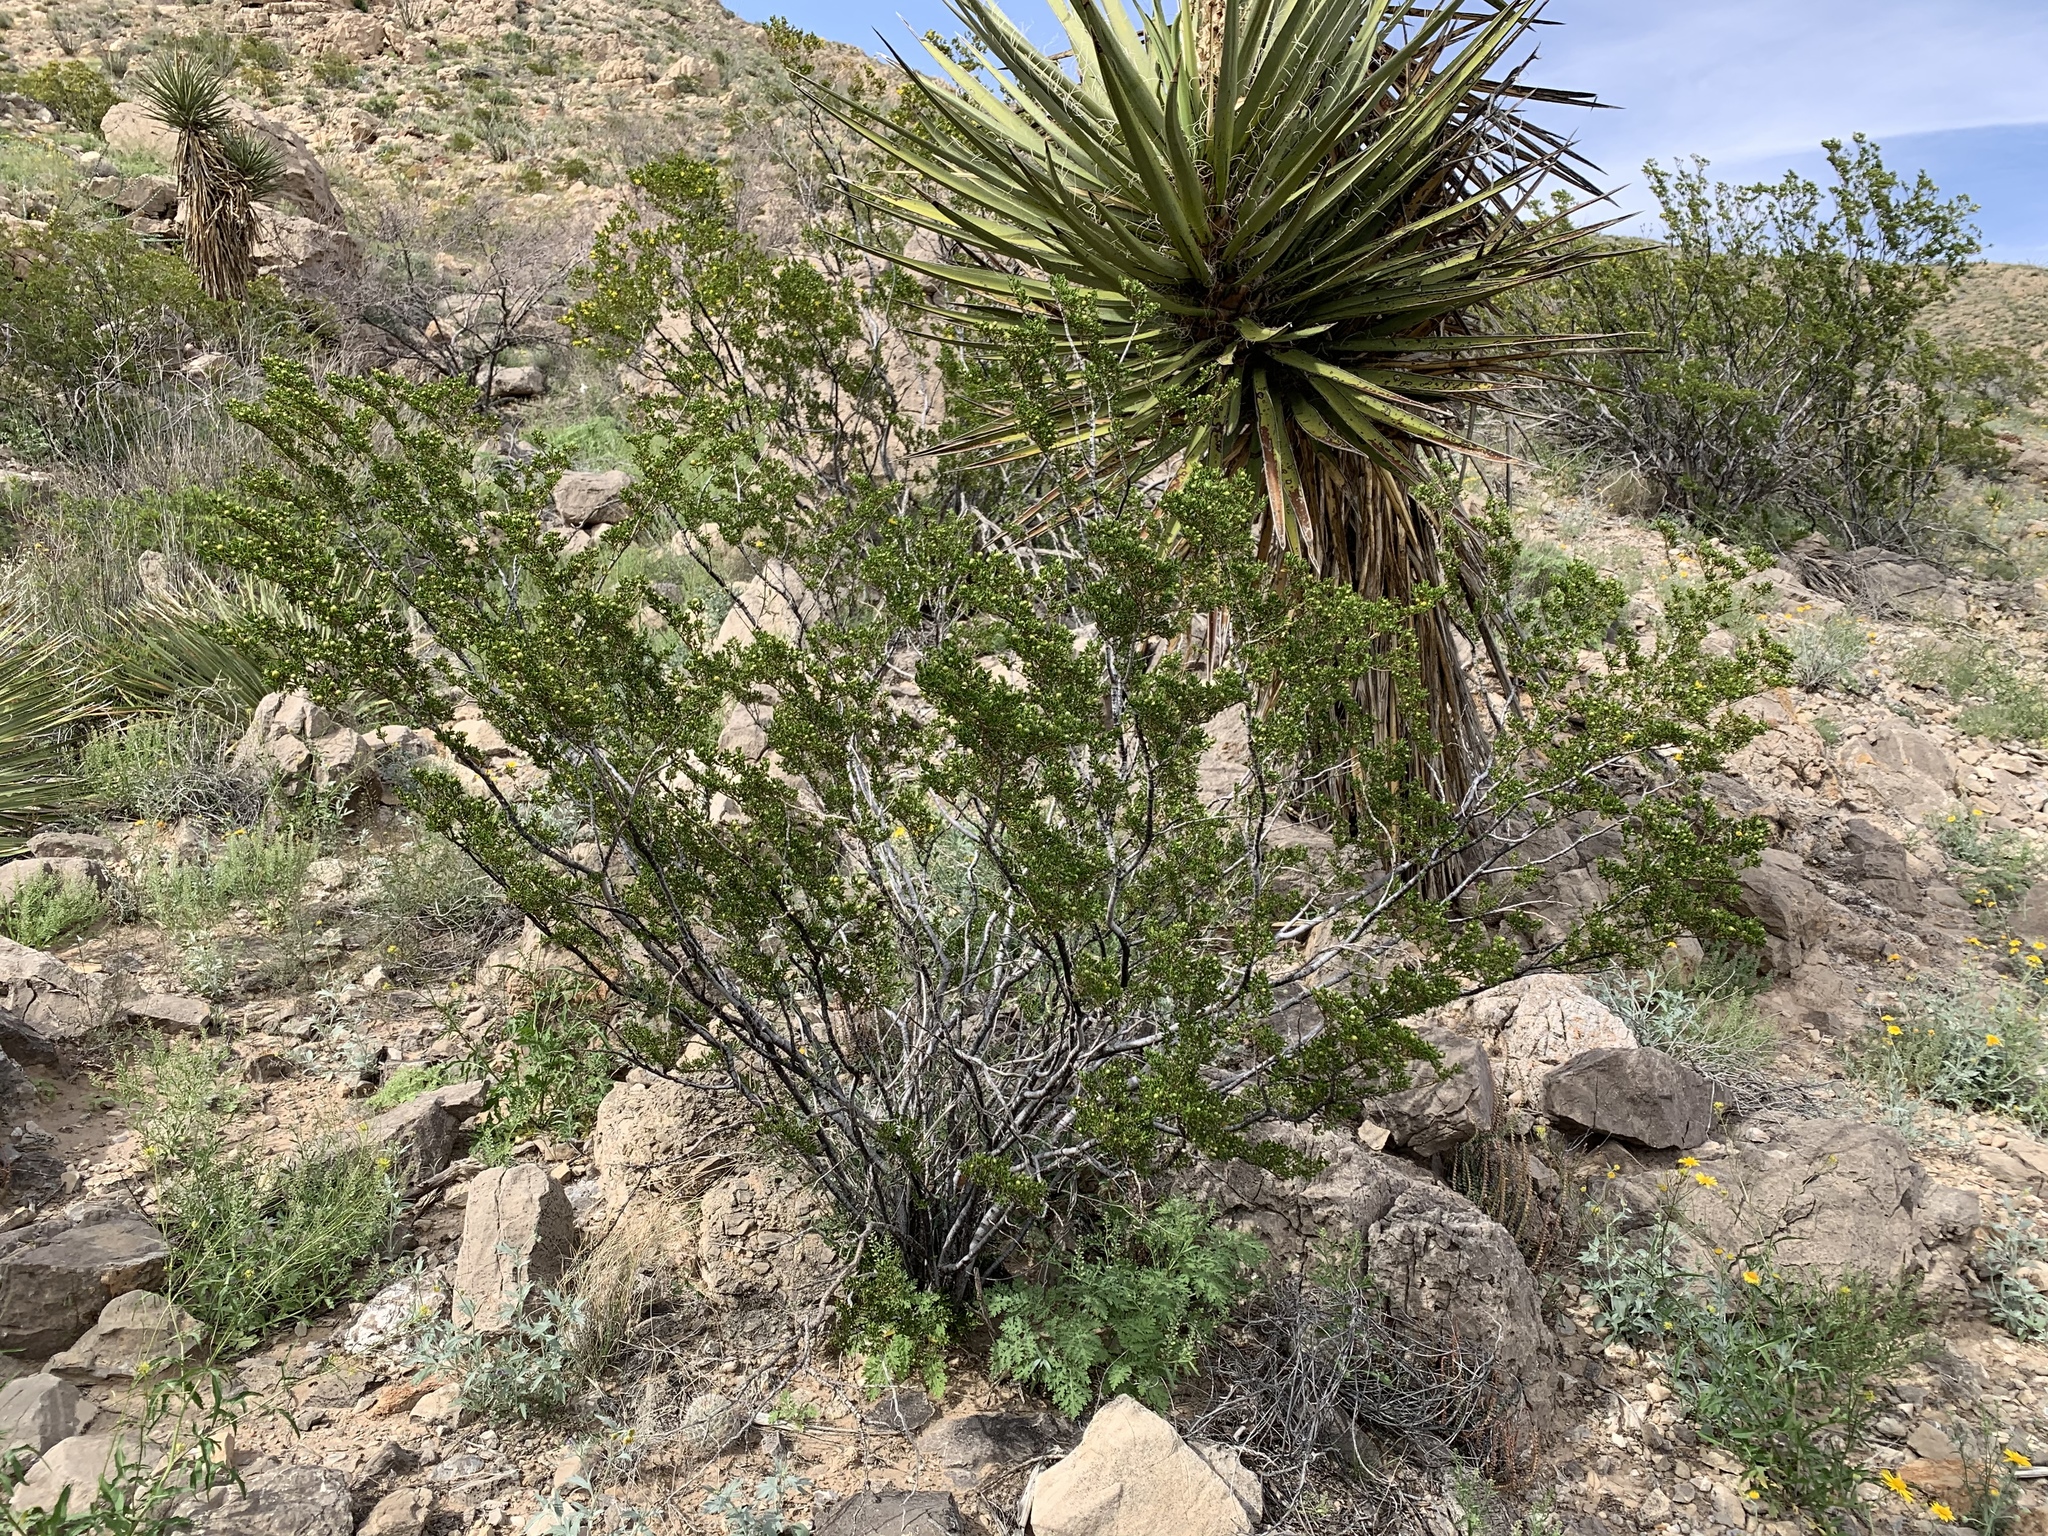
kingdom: Plantae
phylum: Tracheophyta
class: Magnoliopsida
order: Zygophyllales
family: Zygophyllaceae
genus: Larrea
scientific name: Larrea tridentata
